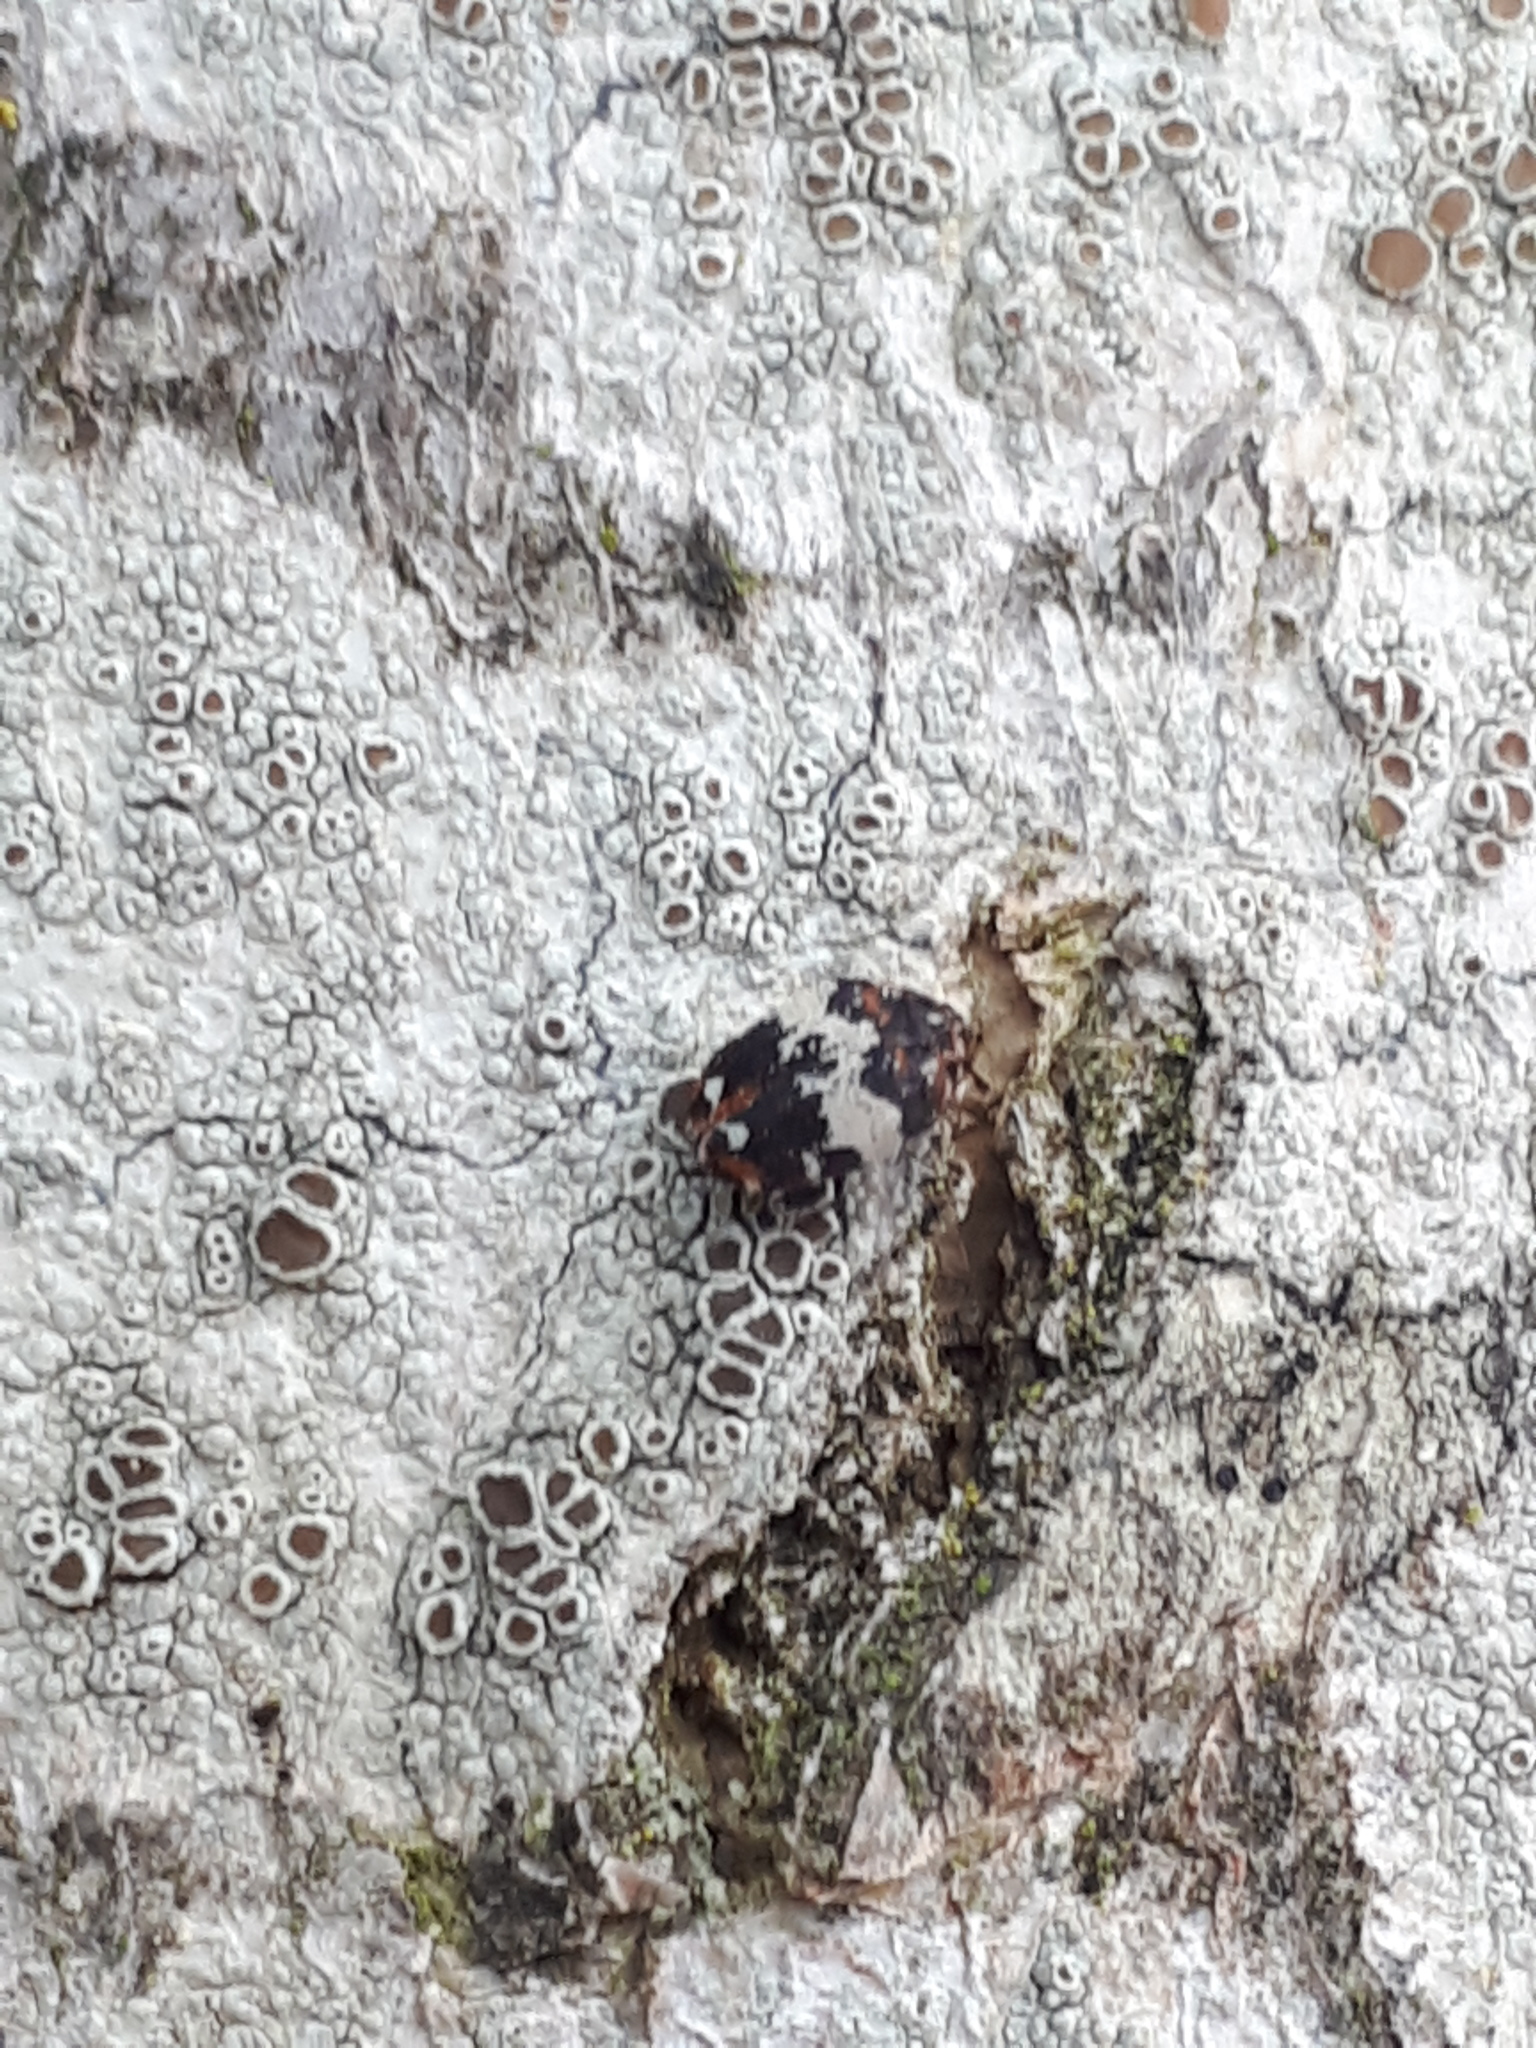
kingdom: Animalia
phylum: Arthropoda
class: Insecta
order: Coleoptera
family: Dermestidae
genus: Anthrenus
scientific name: Anthrenus pimpinellae
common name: Dermestid beetle
